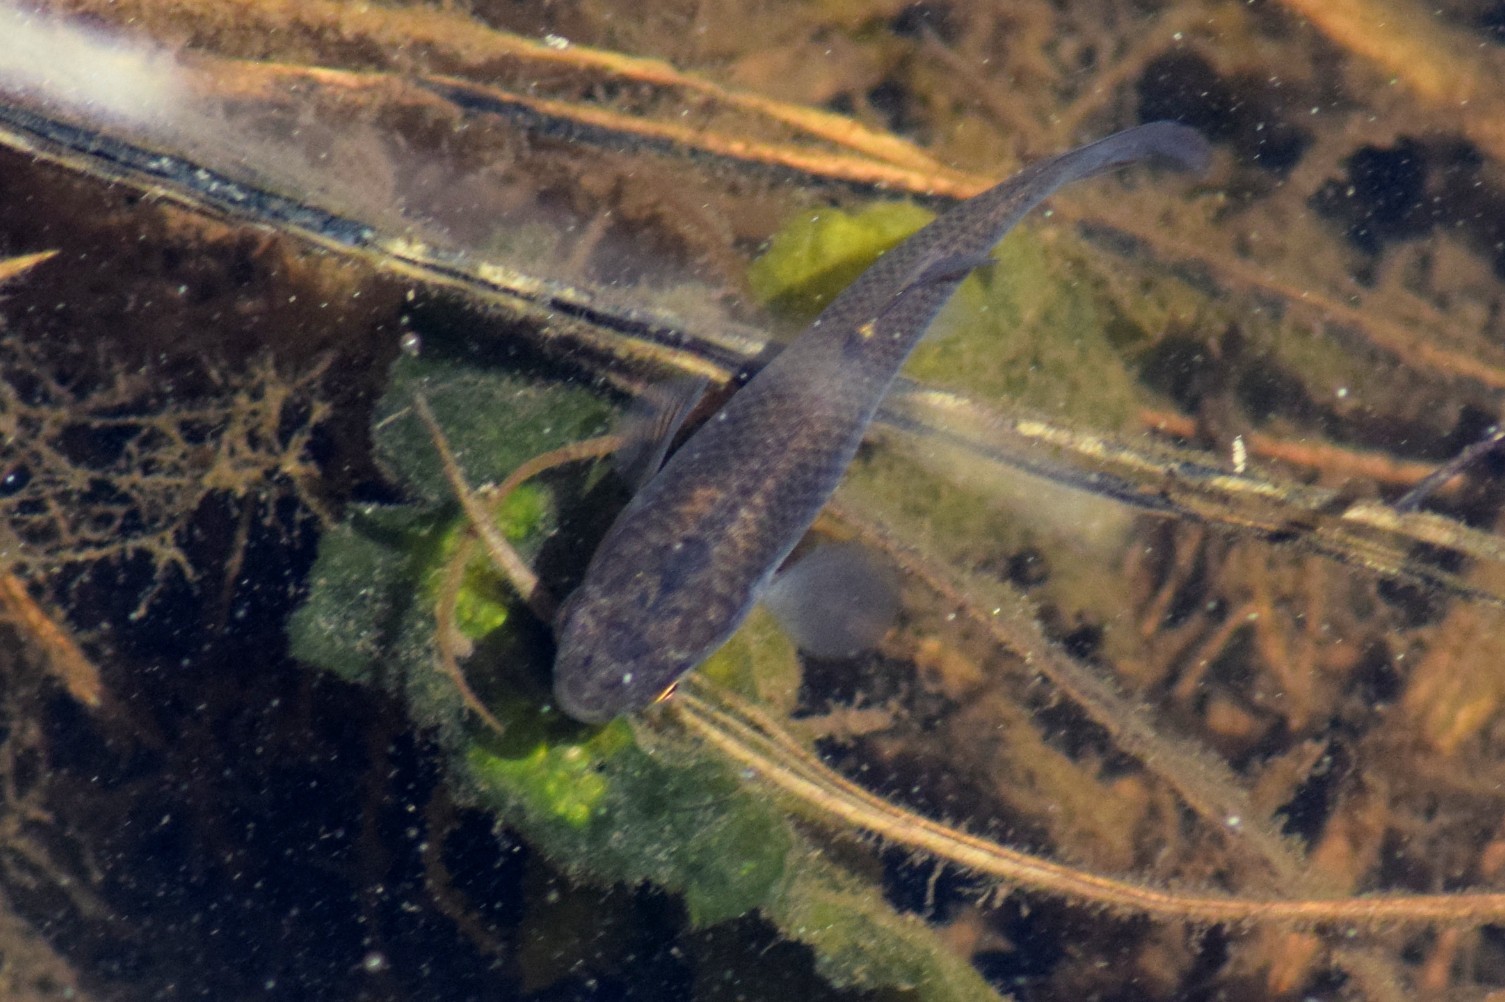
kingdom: Animalia
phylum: Chordata
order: Cyprinodontiformes
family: Poeciliidae
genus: Gambusia
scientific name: Gambusia holbrooki
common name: Eastern mosquitofish
